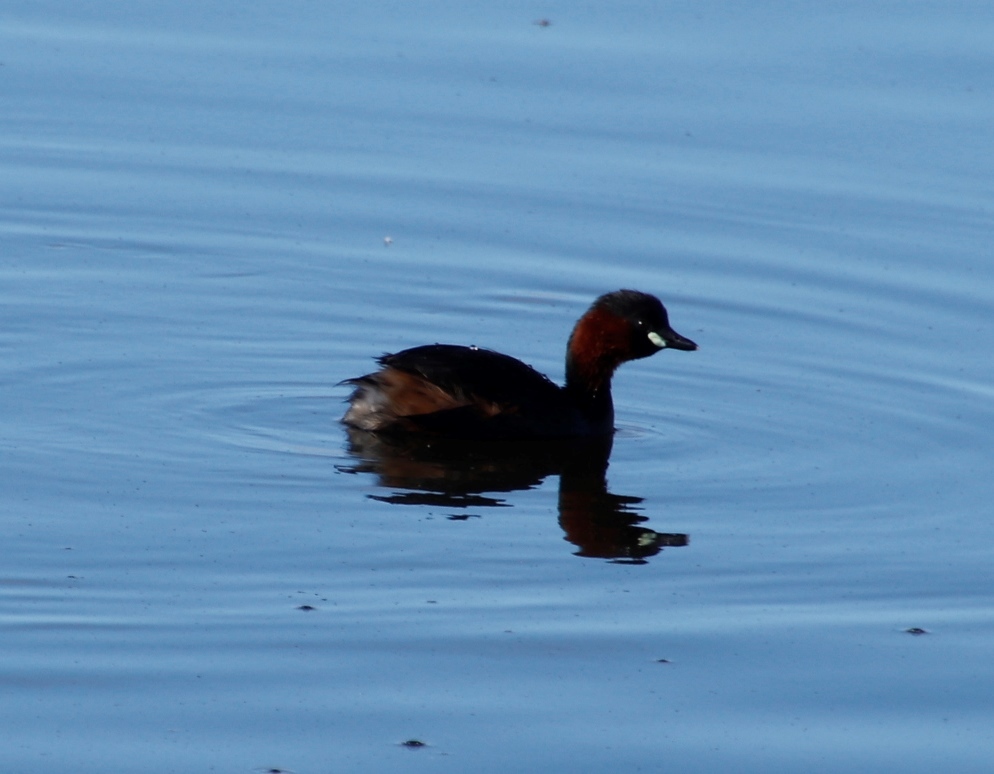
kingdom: Animalia
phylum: Chordata
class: Aves
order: Podicipediformes
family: Podicipedidae
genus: Tachybaptus
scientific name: Tachybaptus ruficollis
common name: Little grebe
